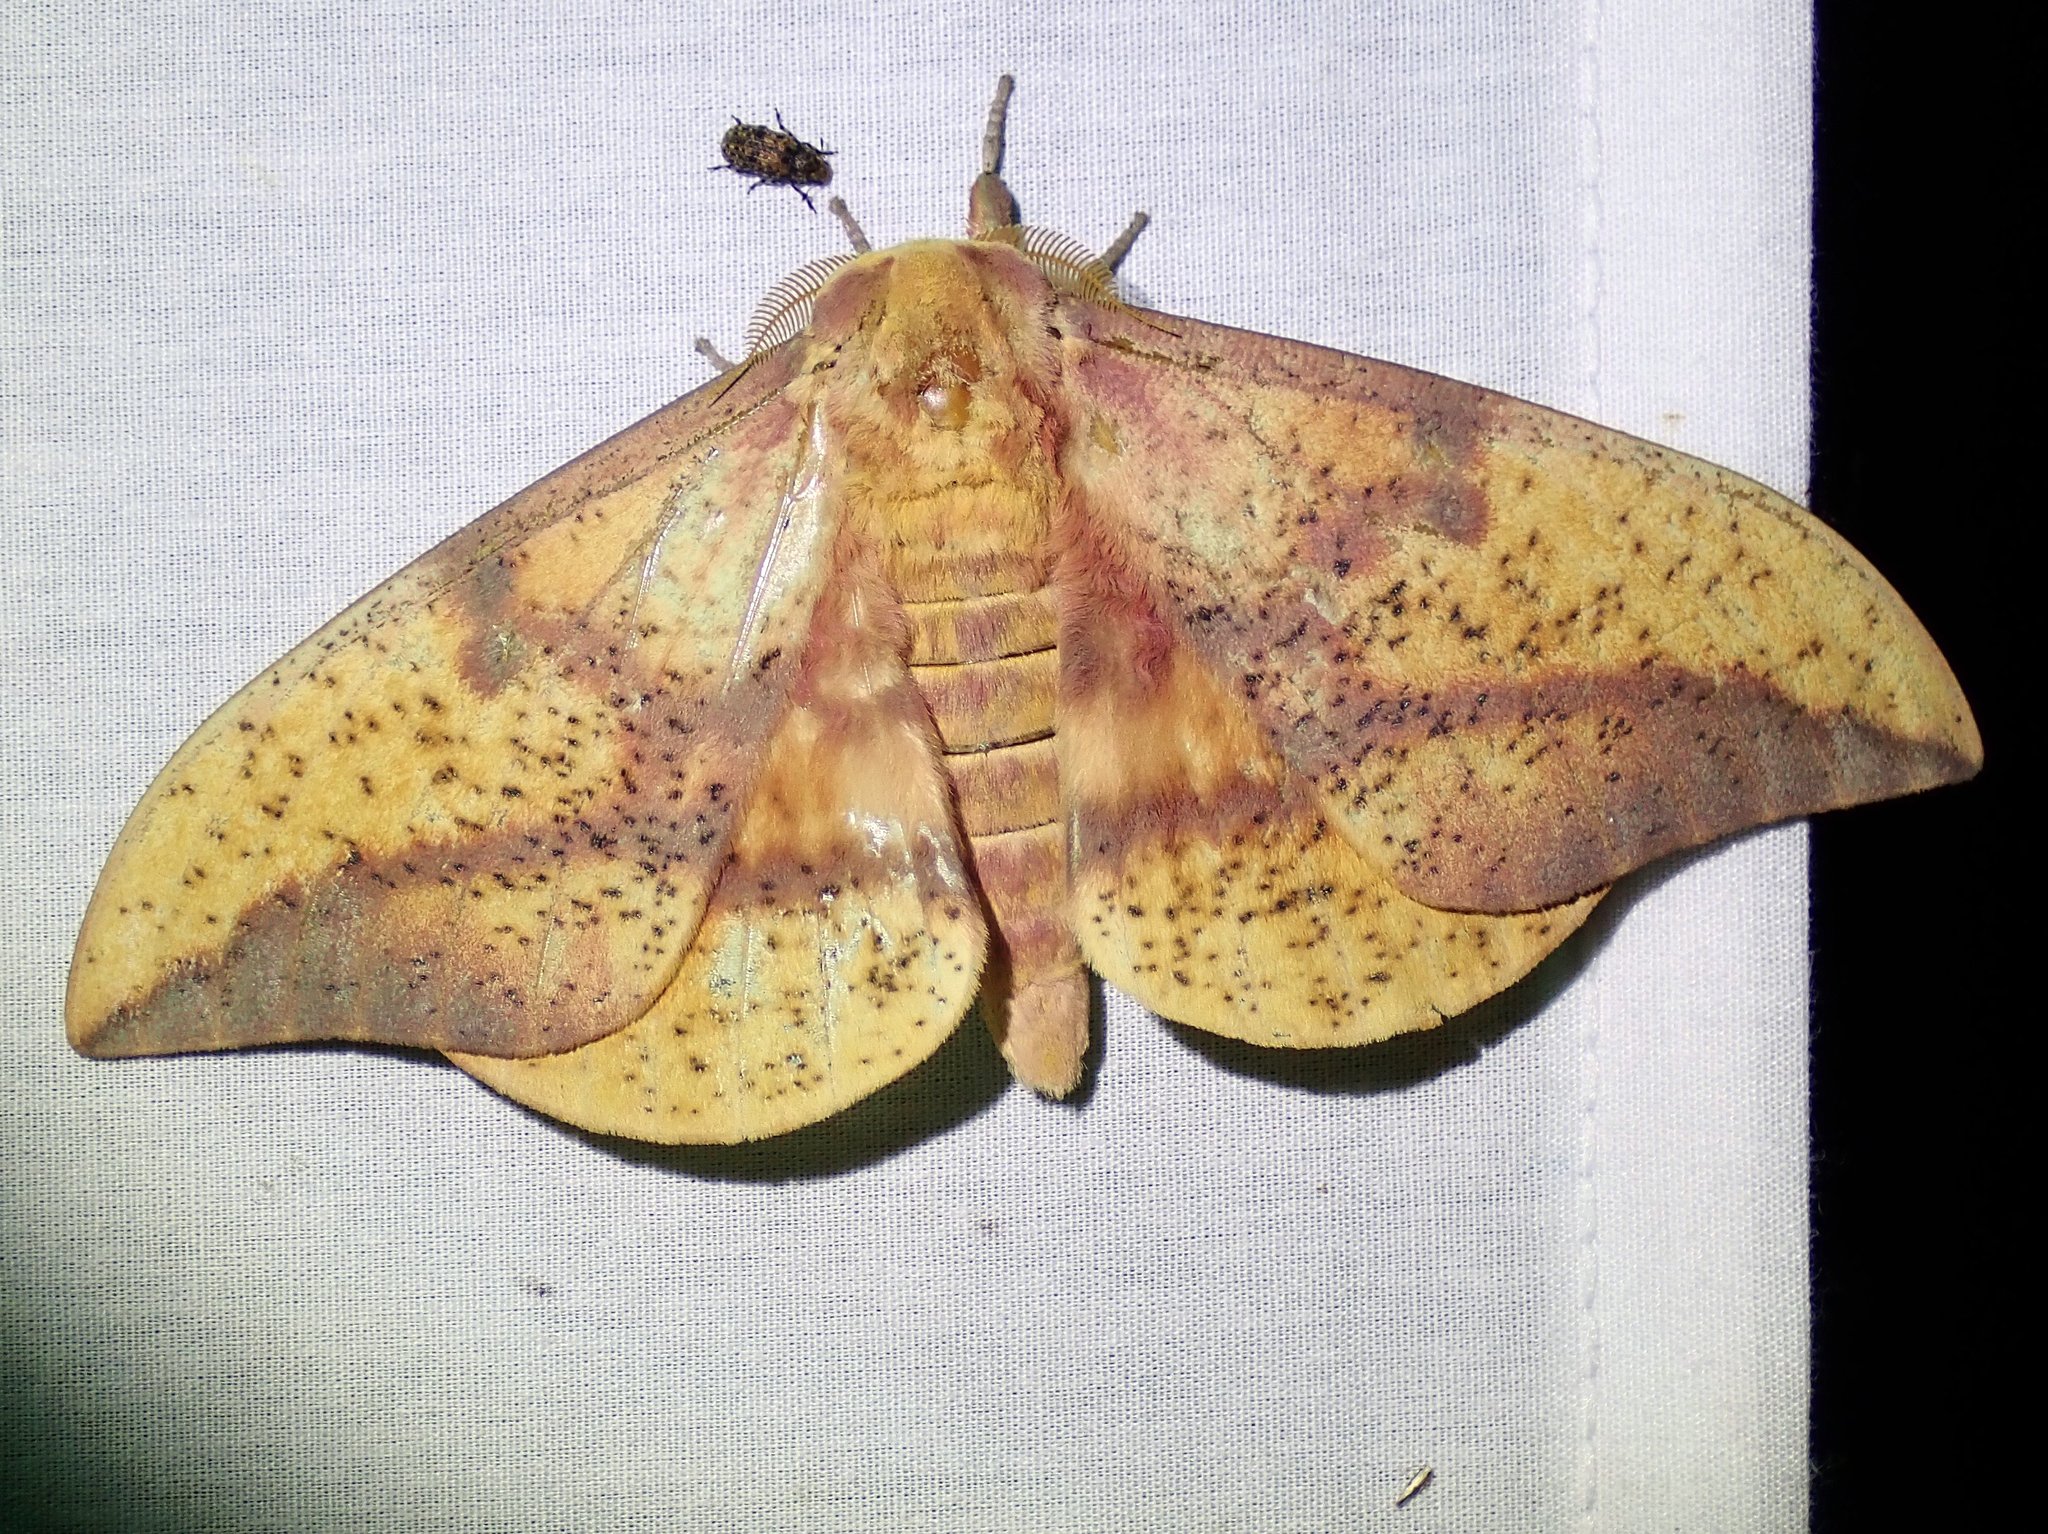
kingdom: Animalia
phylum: Arthropoda
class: Insecta
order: Lepidoptera
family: Saturniidae
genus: Eacles
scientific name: Eacles oslari
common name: Oslar's imperial moth
